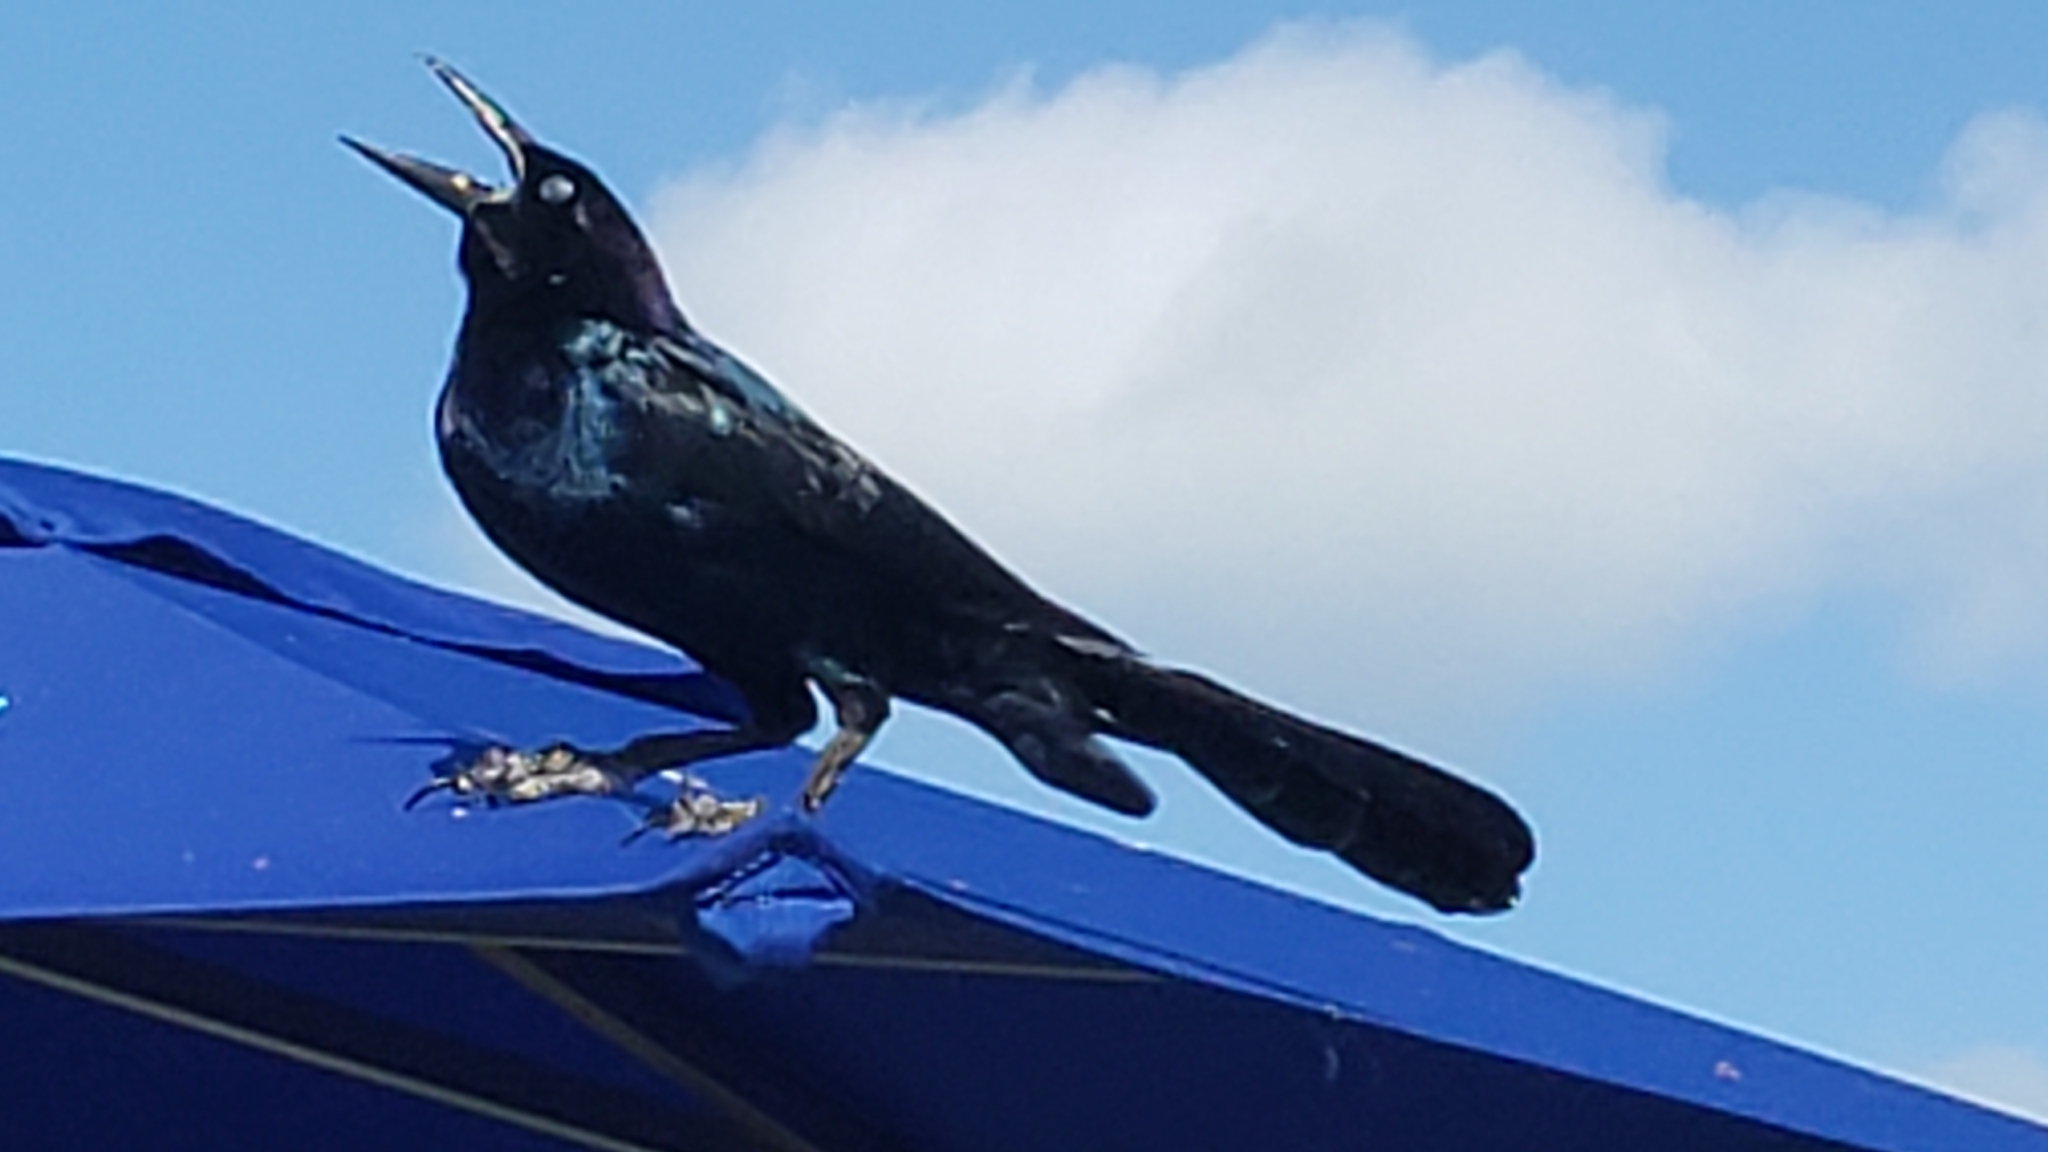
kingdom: Animalia
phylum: Chordata
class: Aves
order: Passeriformes
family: Icteridae
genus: Quiscalus
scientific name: Quiscalus major
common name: Boat-tailed grackle
